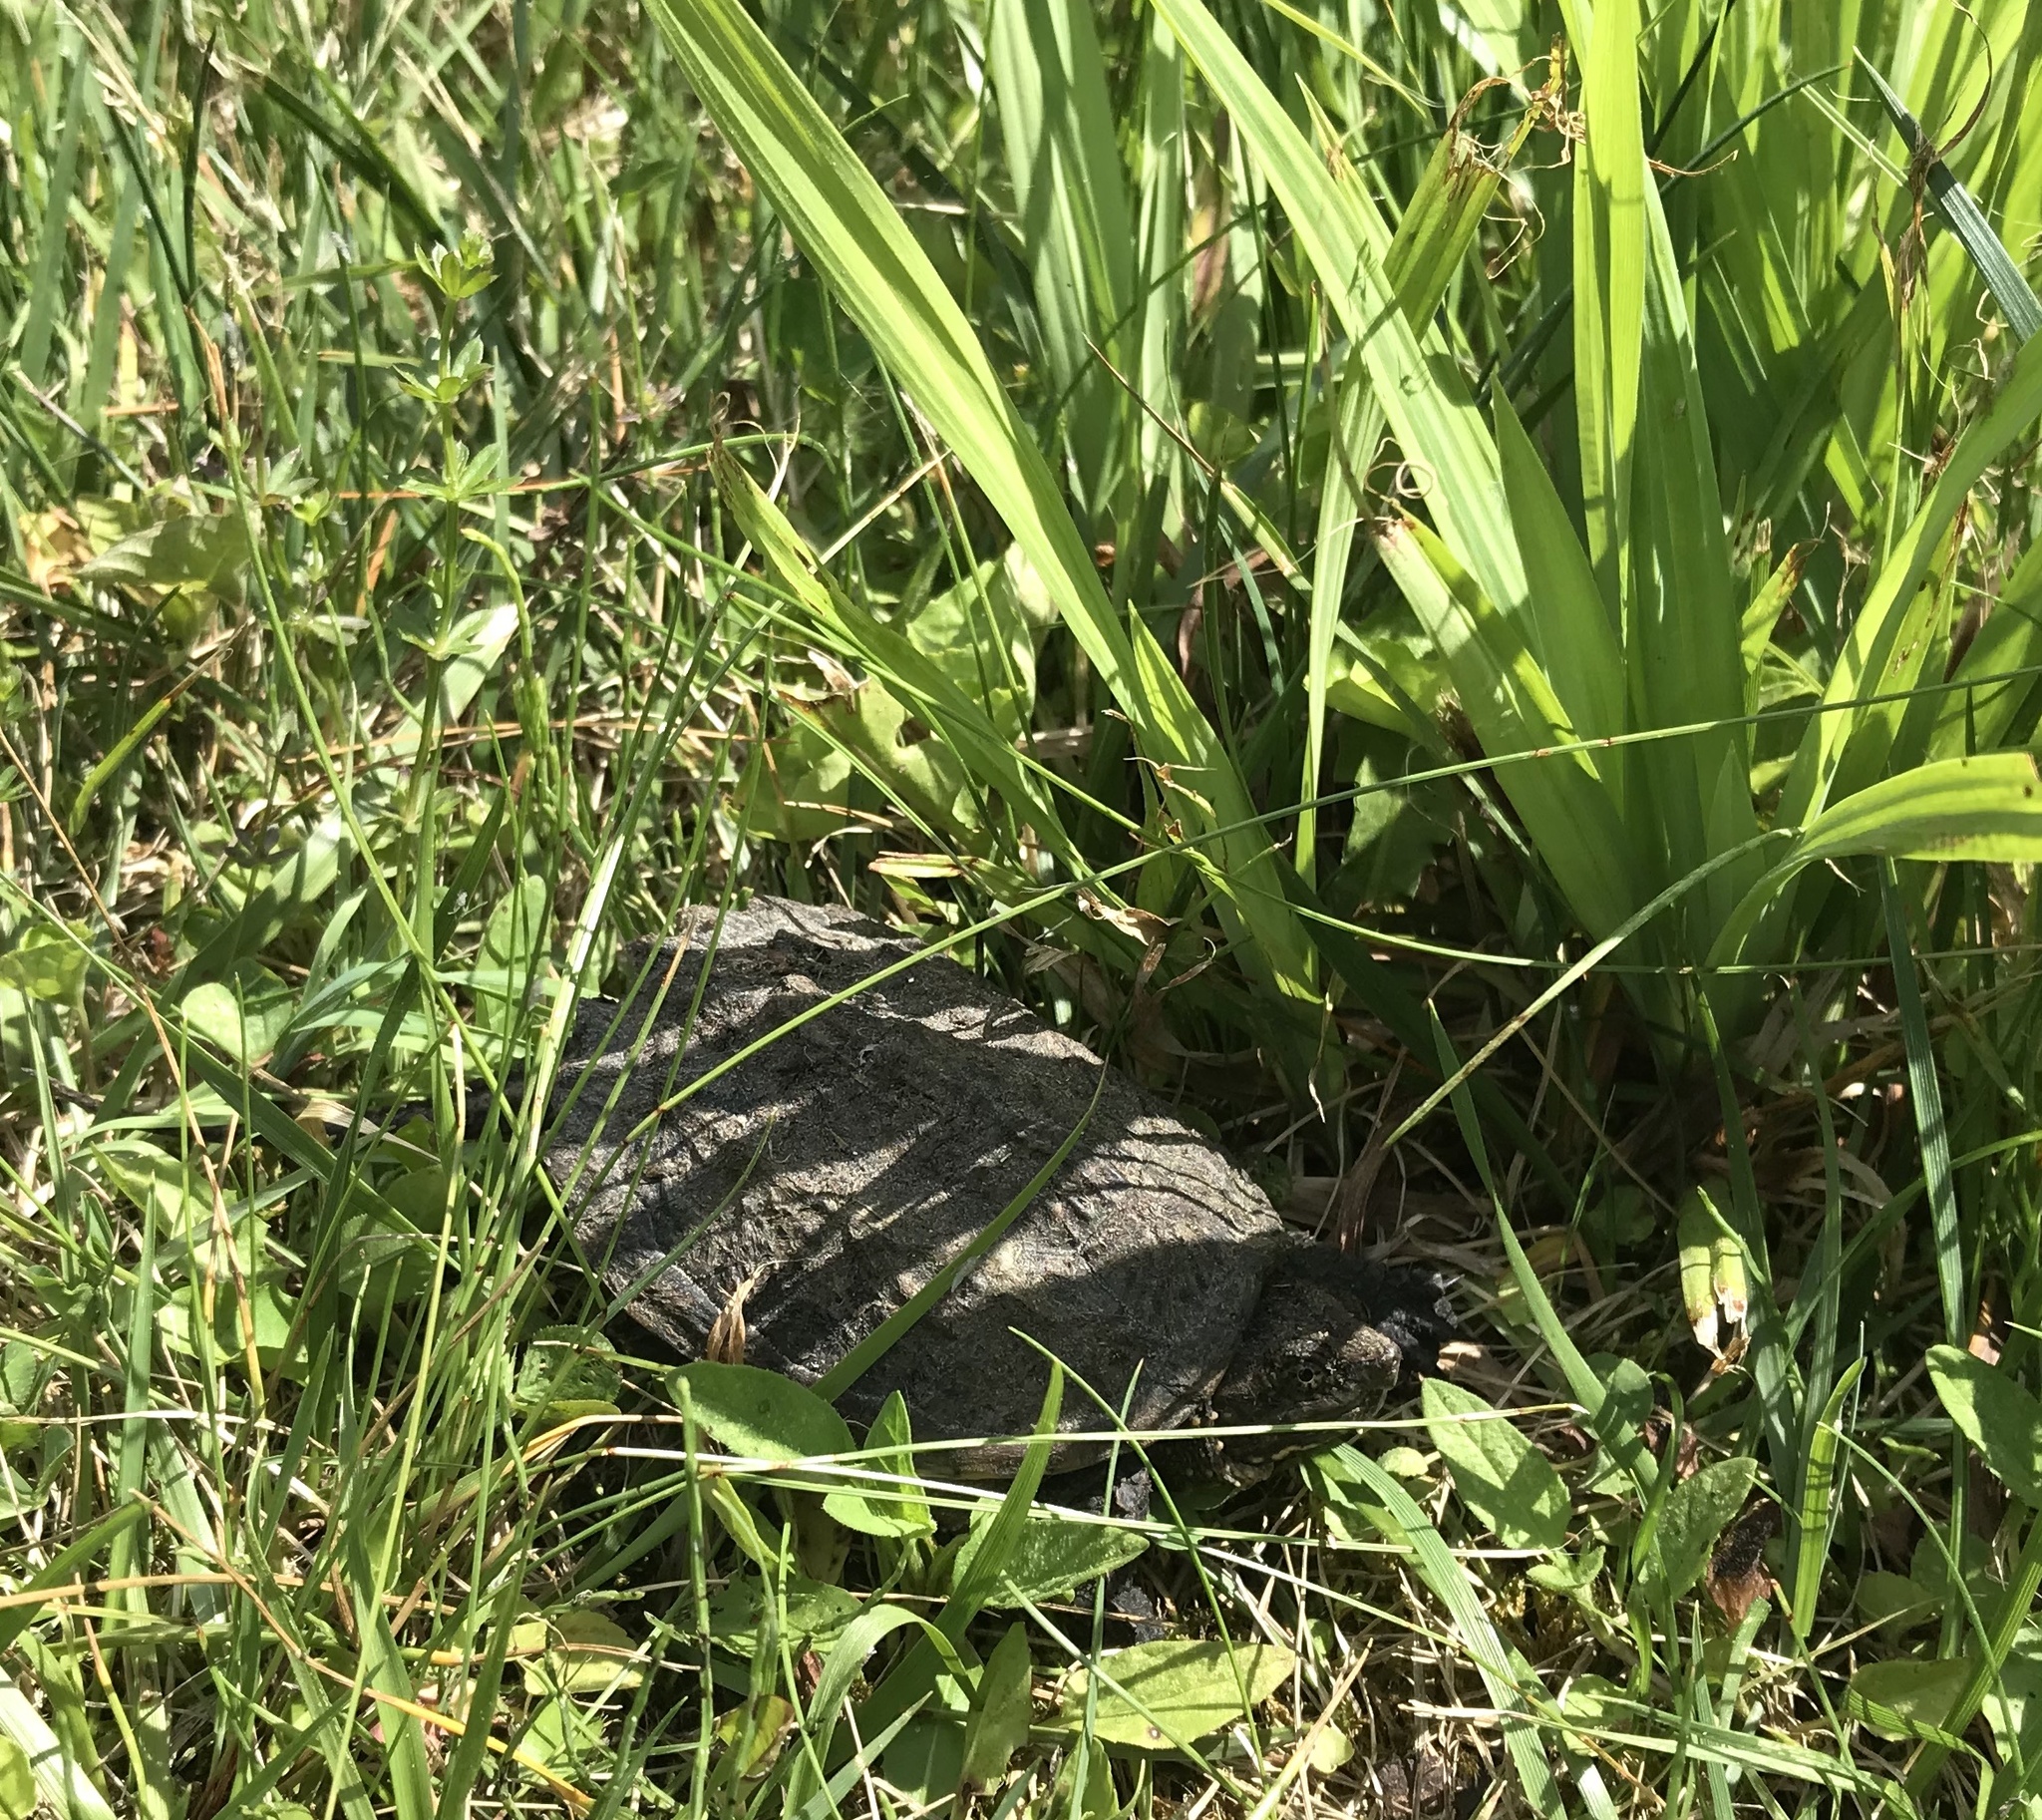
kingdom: Animalia
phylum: Chordata
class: Testudines
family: Chelydridae
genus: Chelydra
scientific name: Chelydra serpentina
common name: Common snapping turtle
